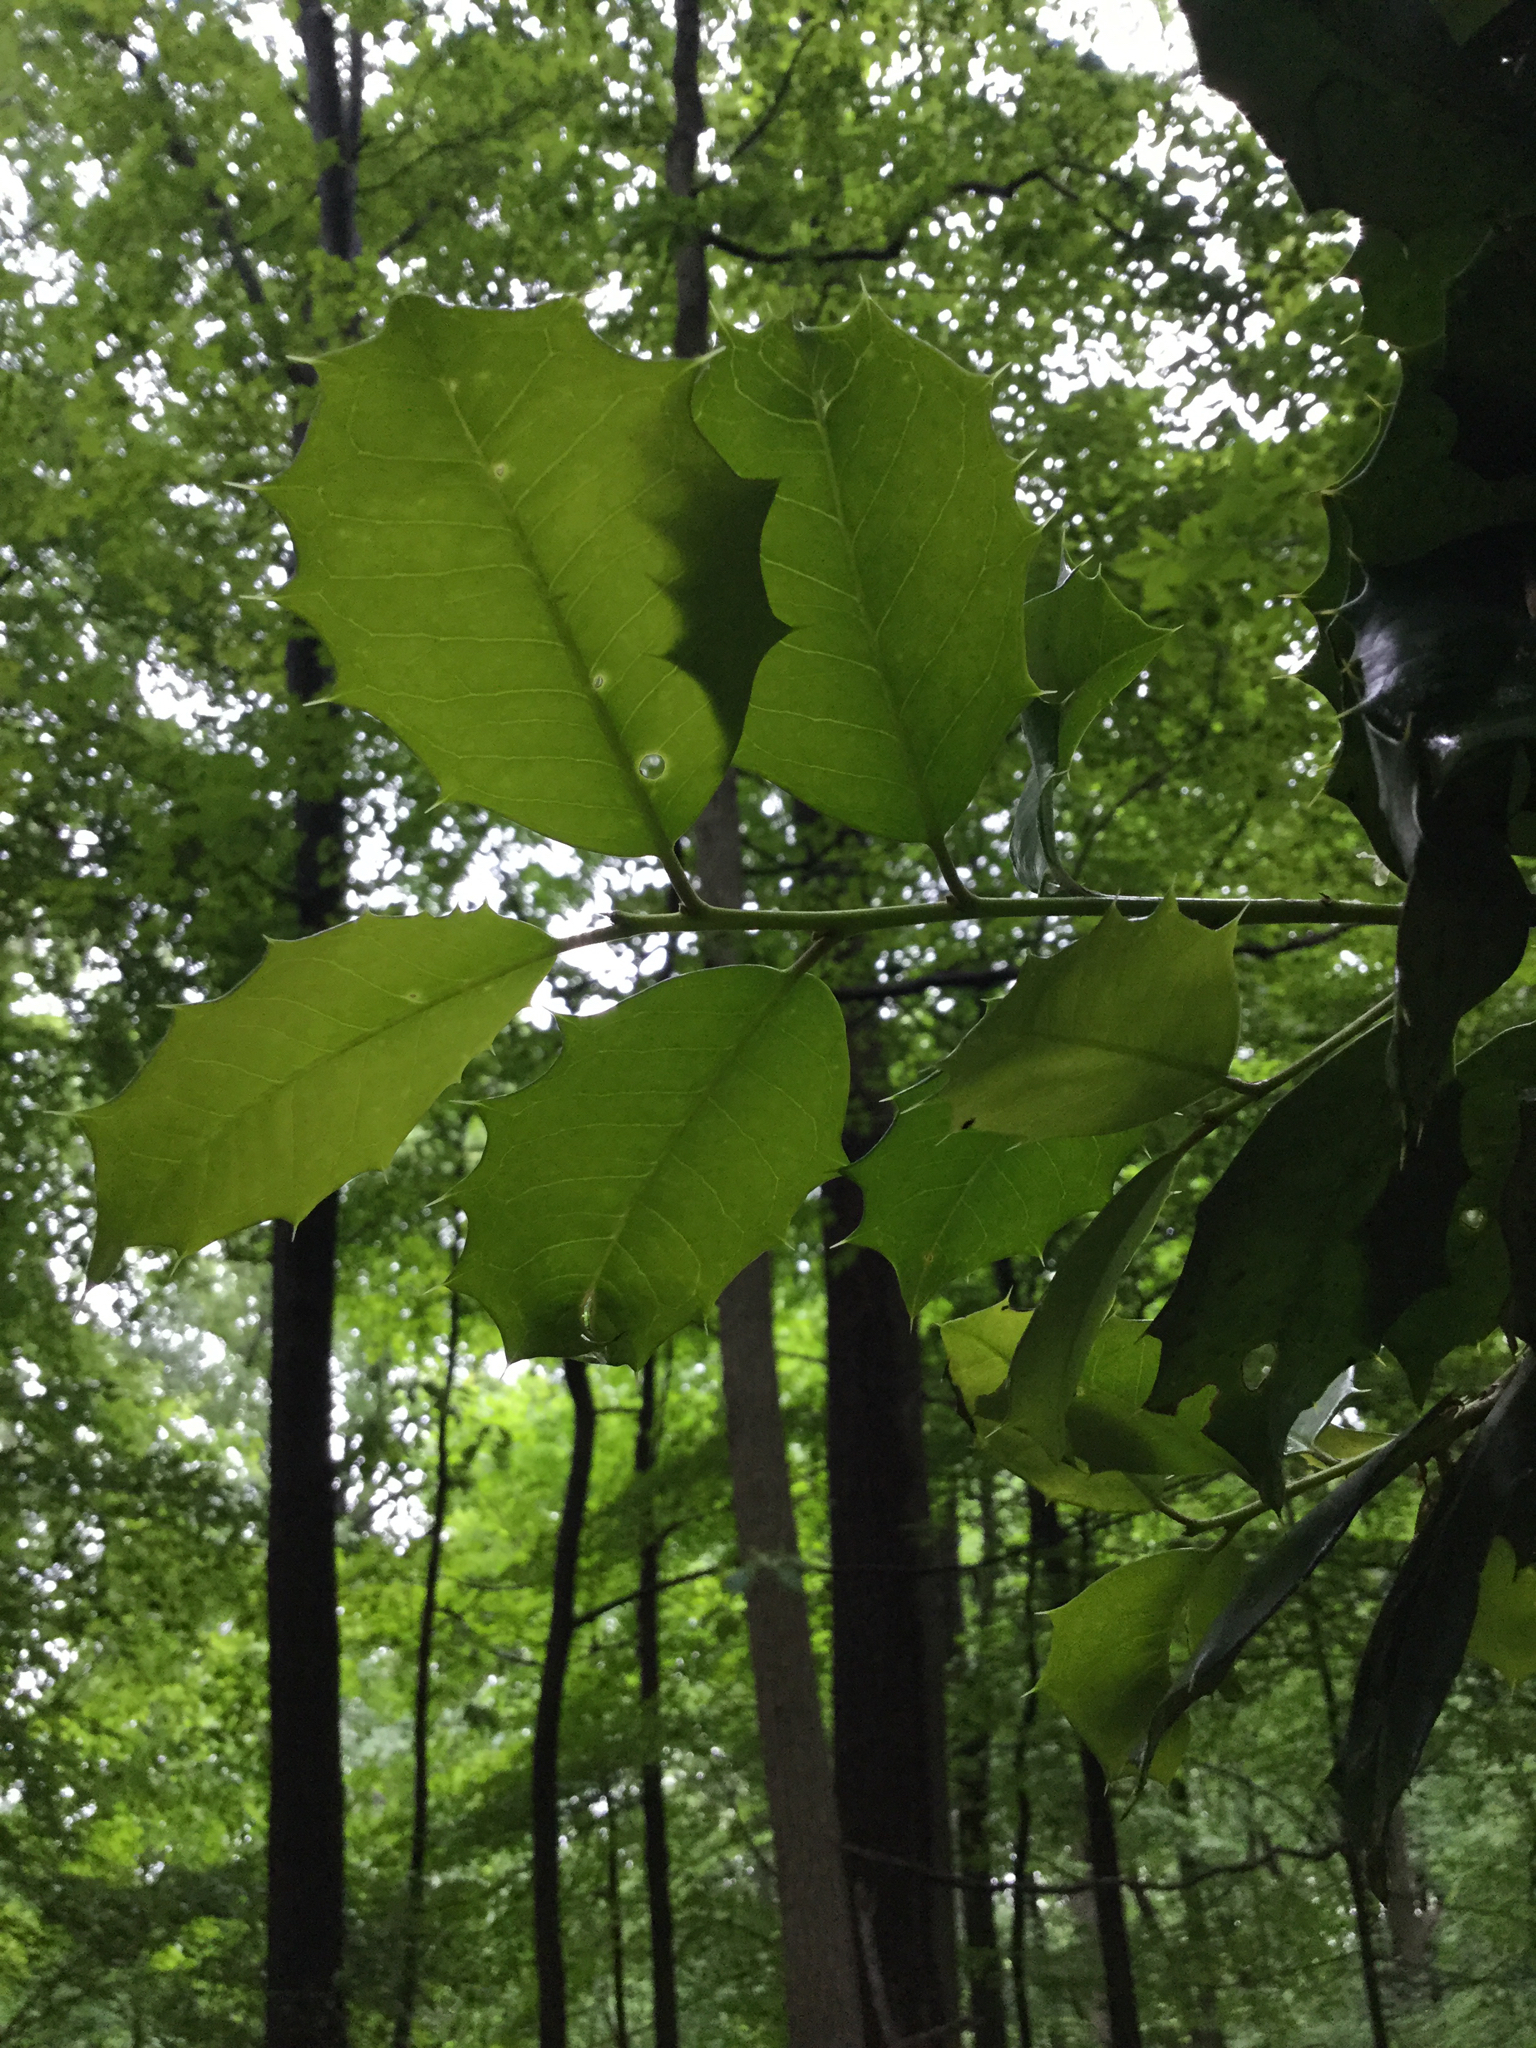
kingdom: Plantae
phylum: Tracheophyta
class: Magnoliopsida
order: Aquifoliales
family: Aquifoliaceae
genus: Ilex
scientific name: Ilex opaca
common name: American holly
